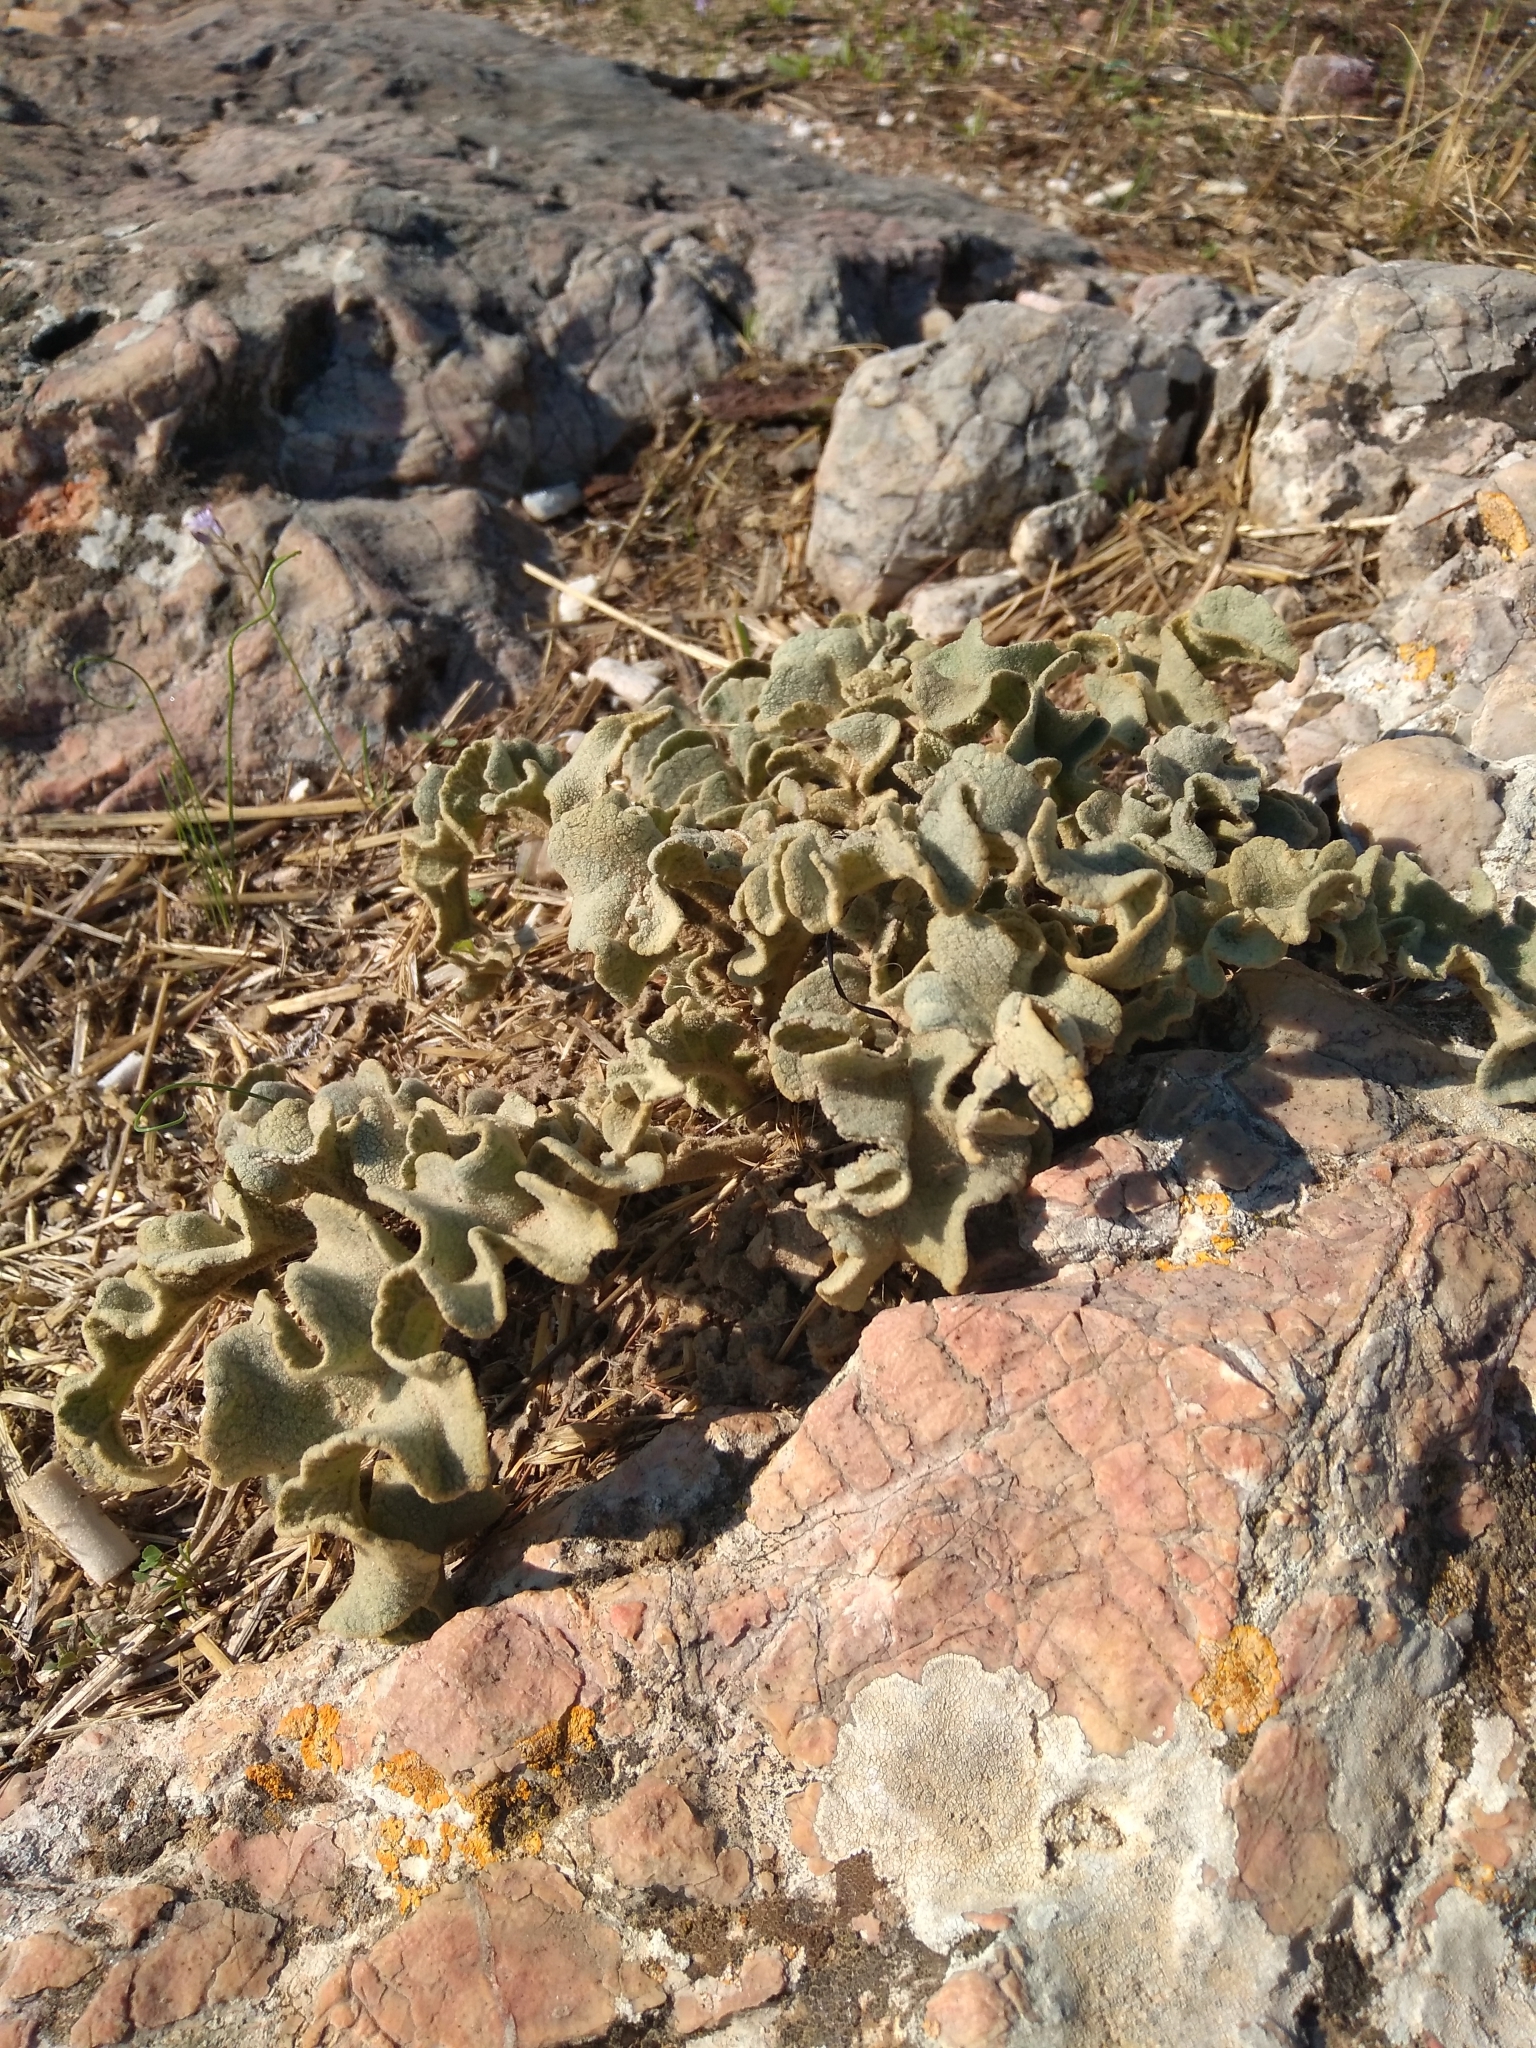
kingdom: Plantae
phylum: Tracheophyta
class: Magnoliopsida
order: Lamiales
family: Scrophulariaceae
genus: Verbascum
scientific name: Verbascum undulatum
